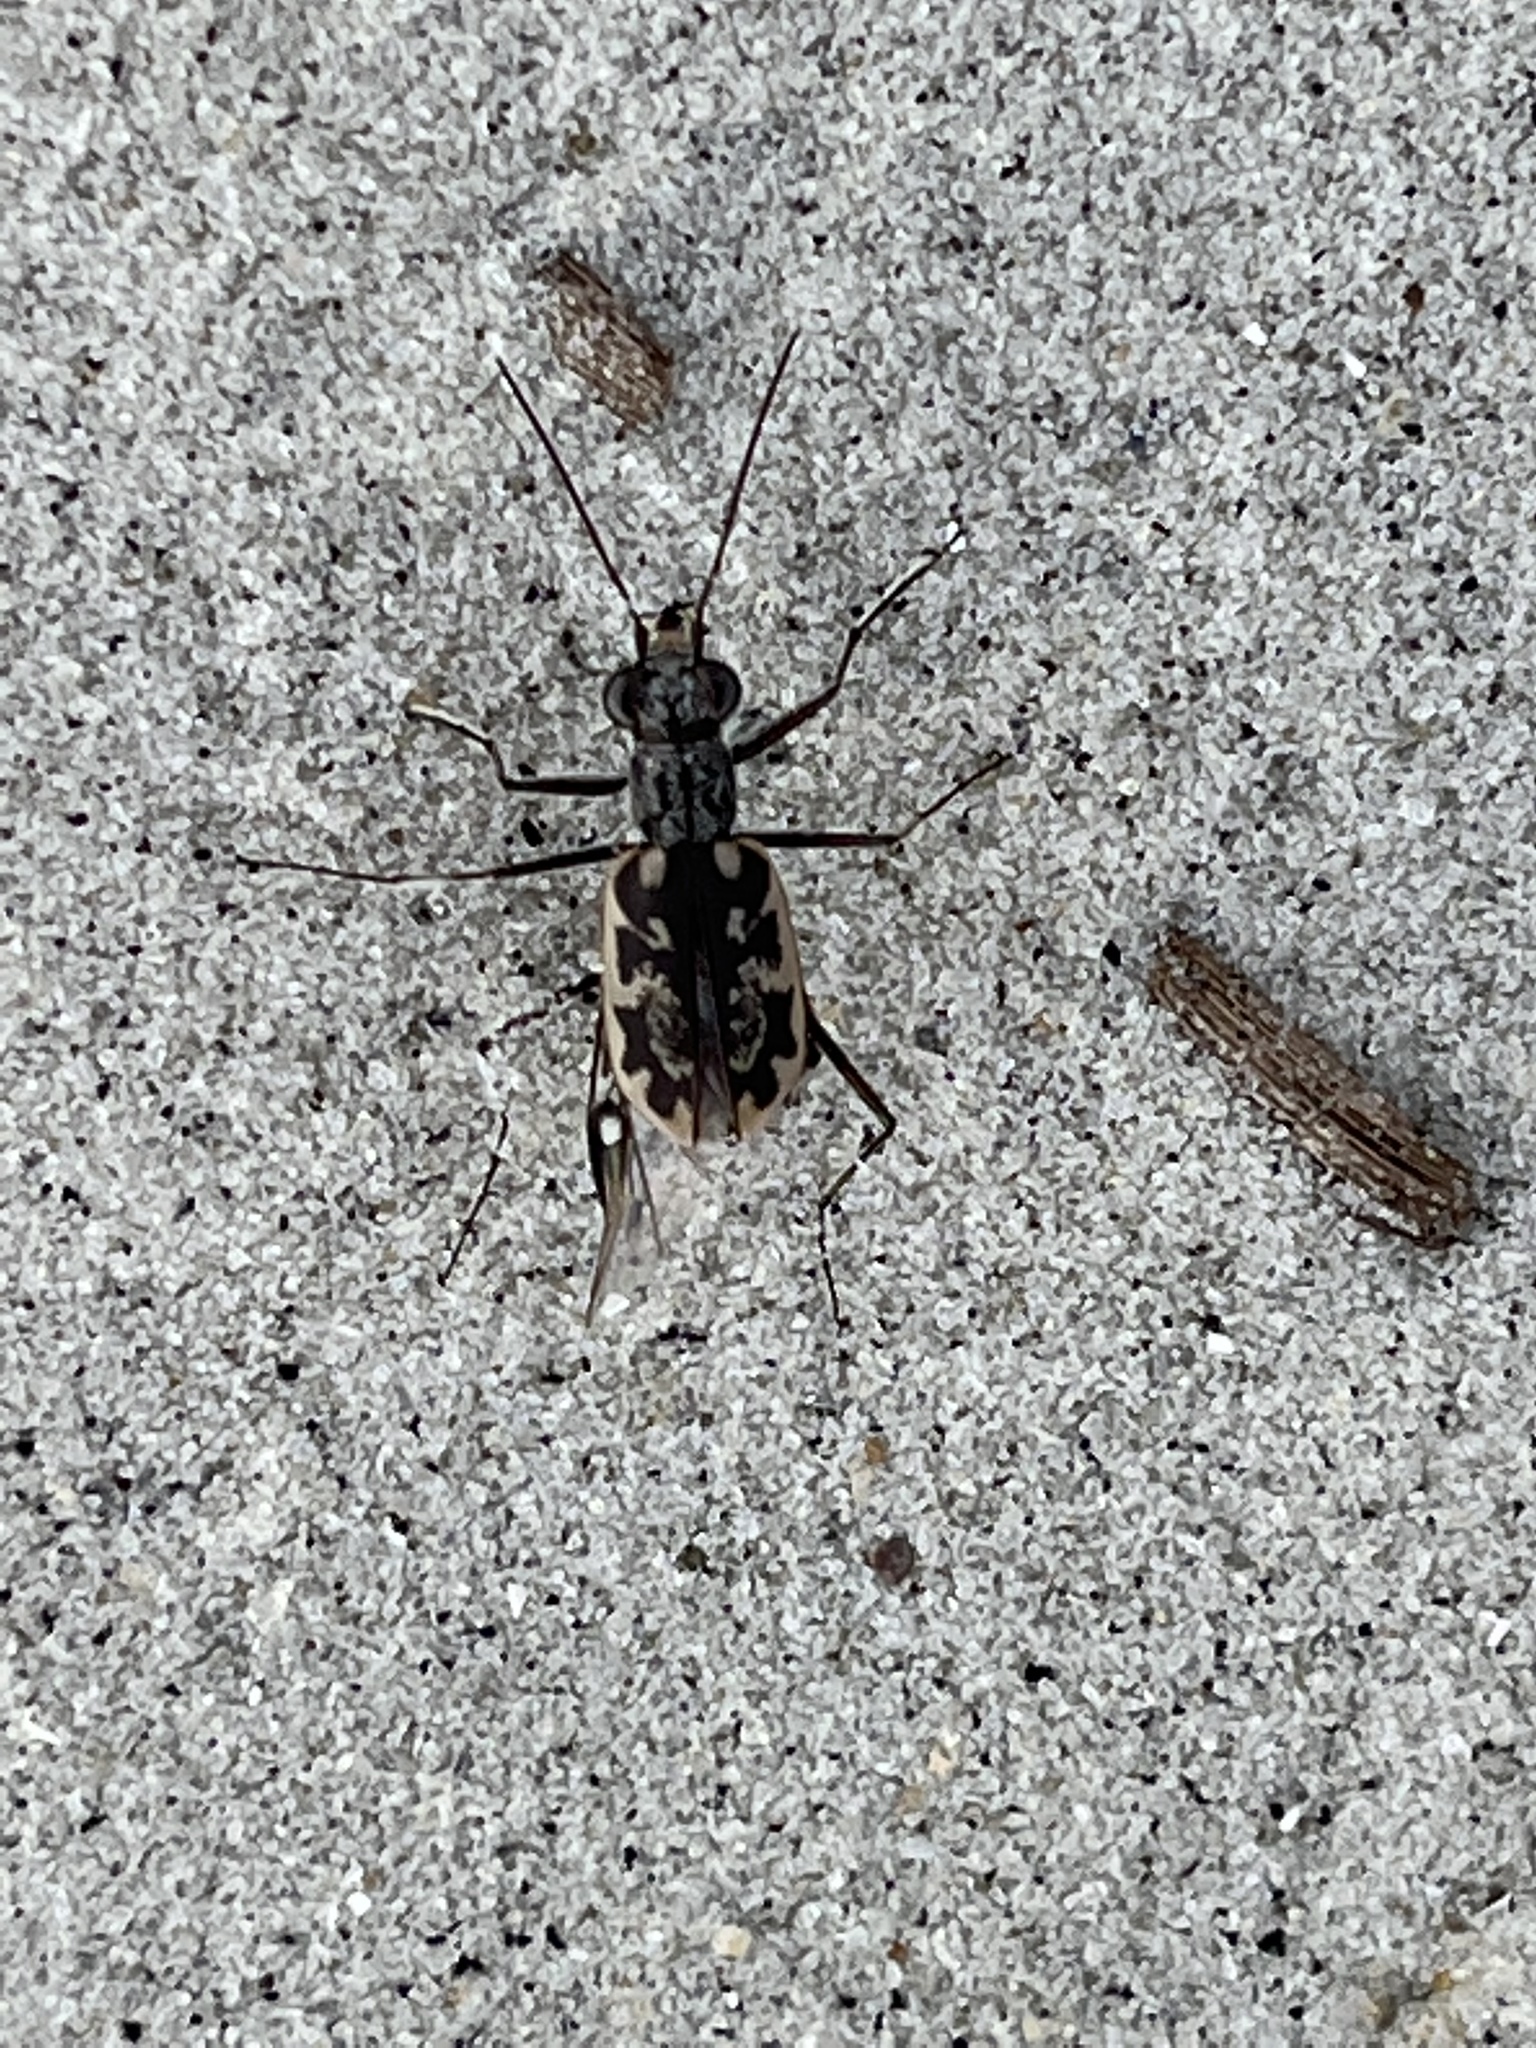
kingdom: Animalia
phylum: Arthropoda
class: Insecta
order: Coleoptera
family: Carabidae
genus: Ellipsoptera
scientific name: Ellipsoptera marginata
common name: Margined tiger beetle
